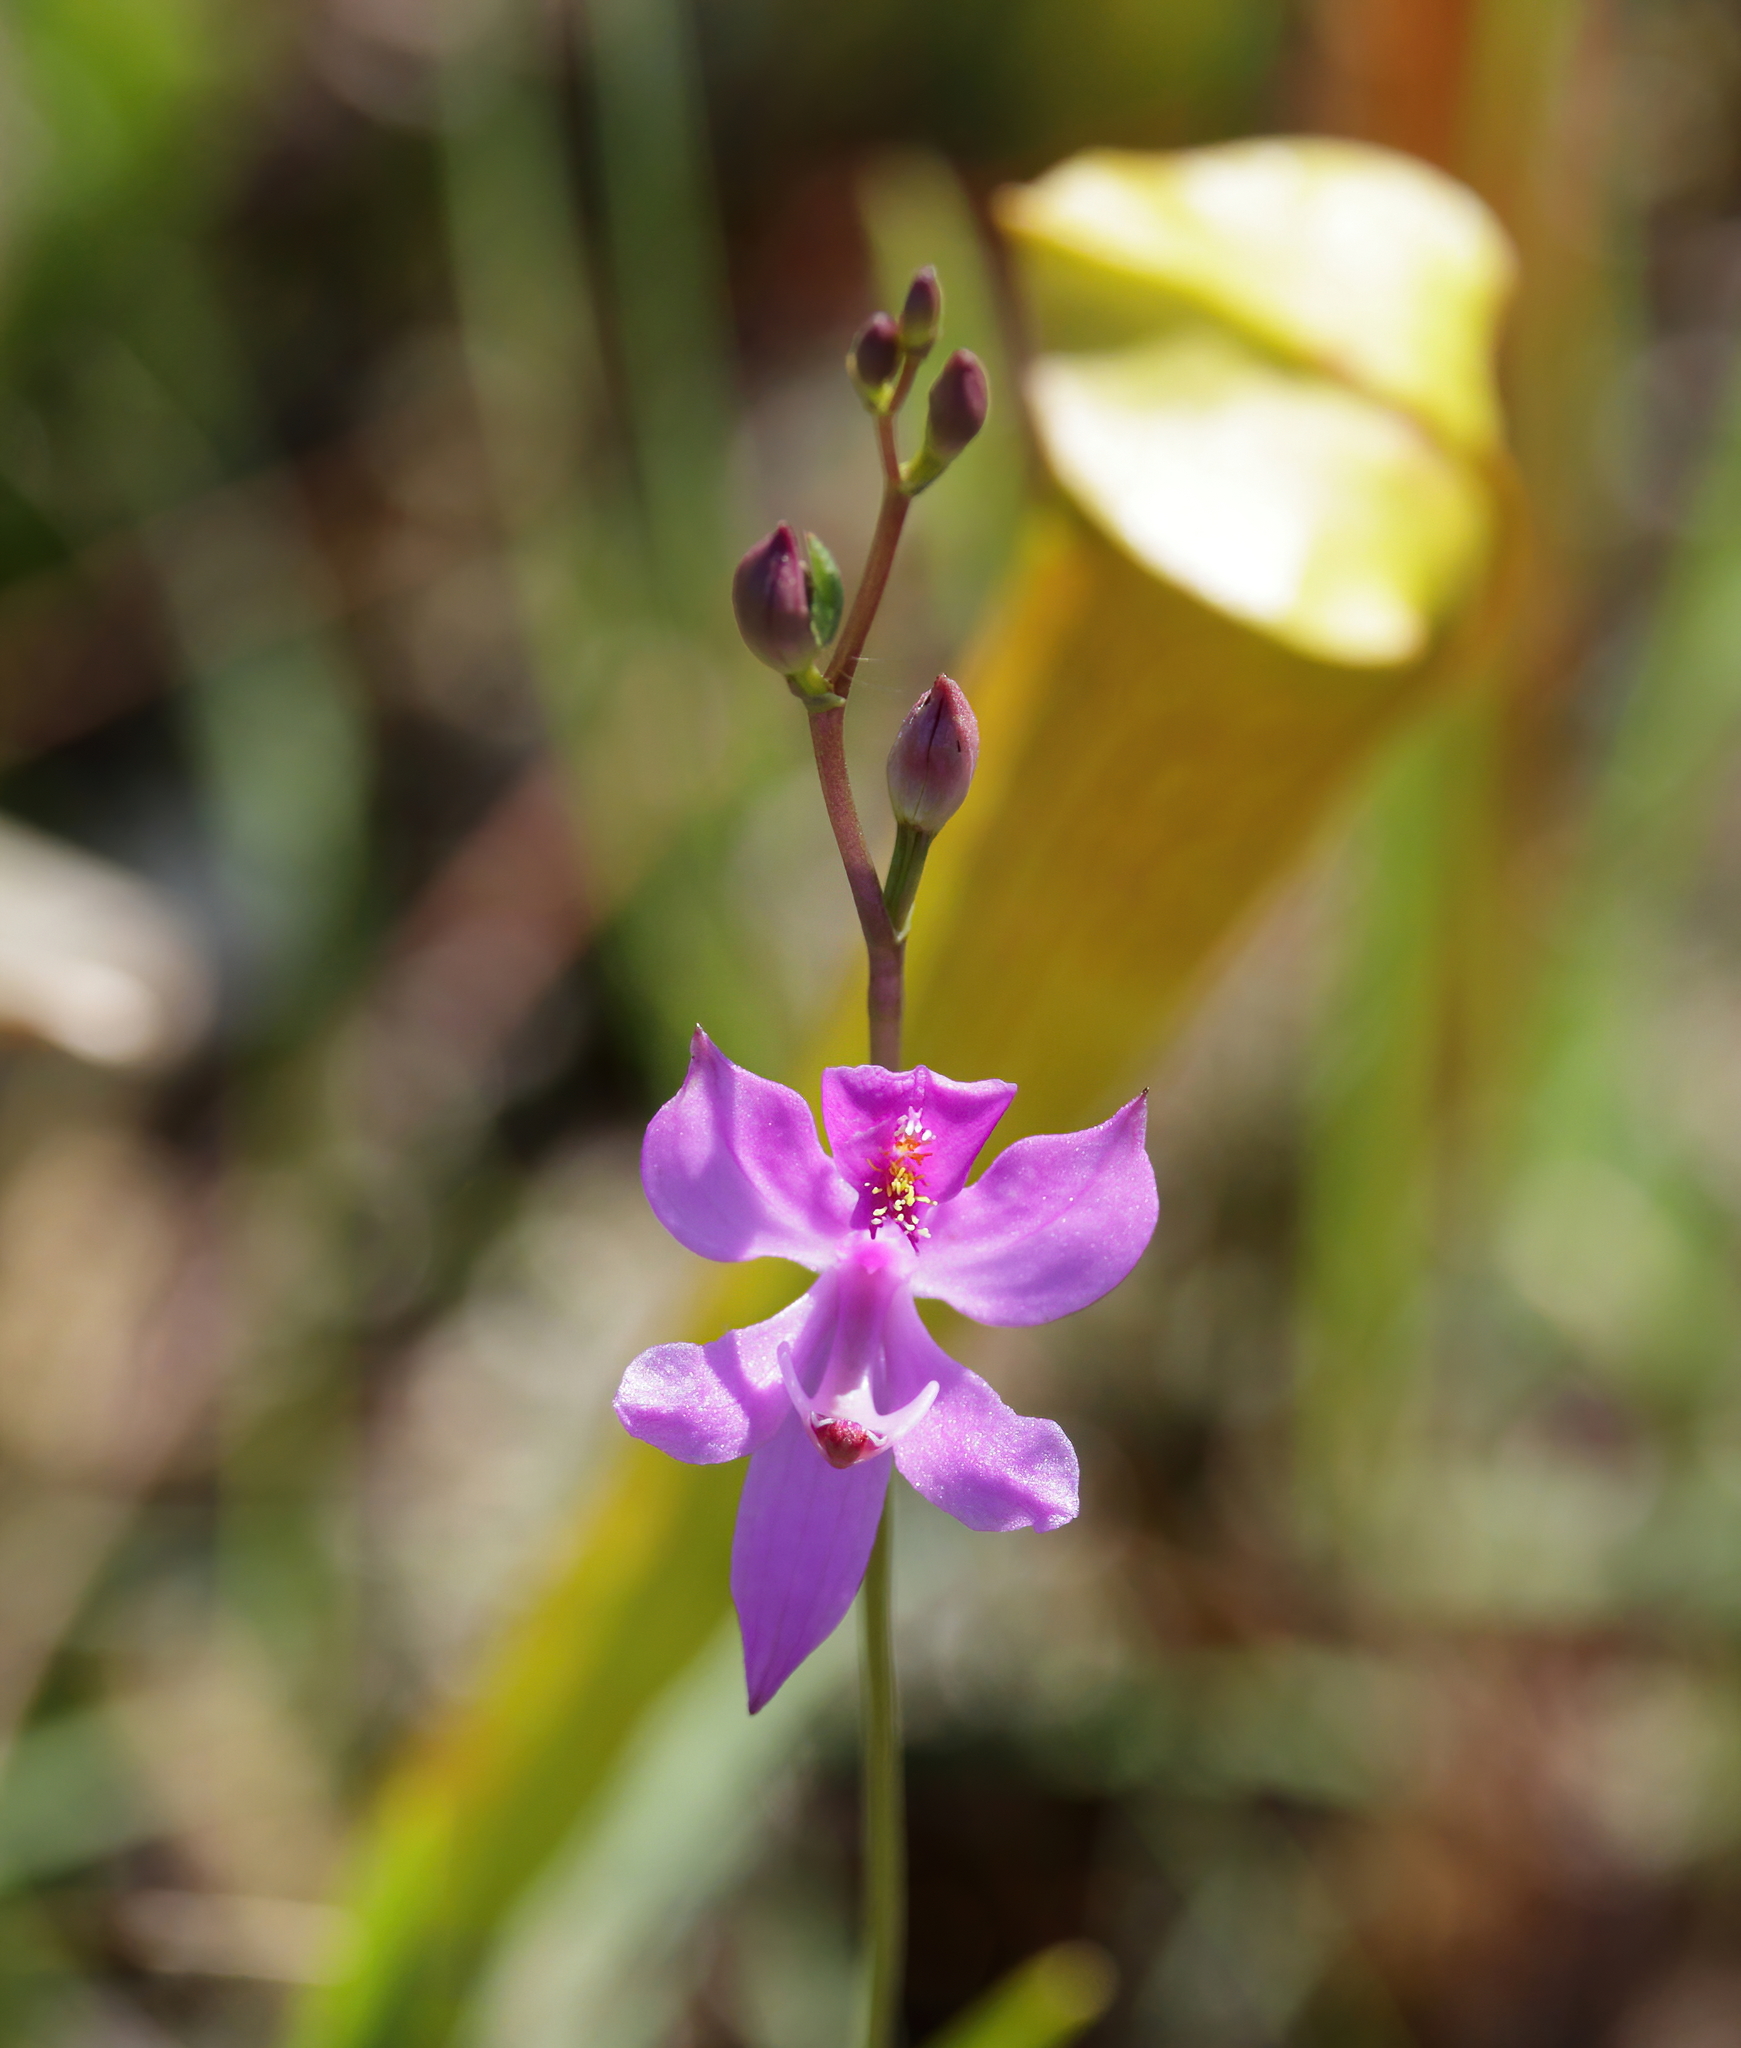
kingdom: Plantae
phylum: Tracheophyta
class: Liliopsida
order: Asparagales
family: Orchidaceae
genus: Calopogon
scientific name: Calopogon pallidus
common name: Pale grasspink
